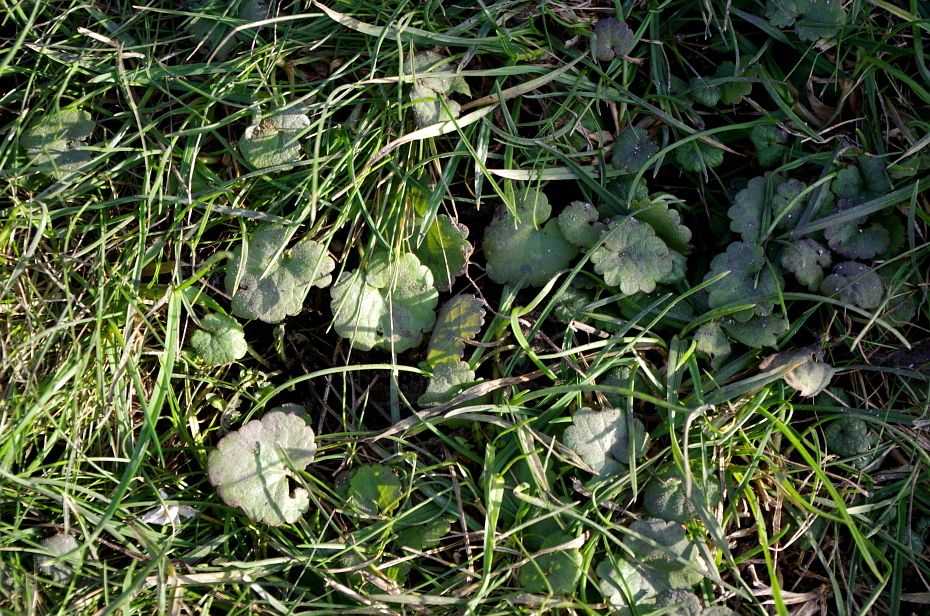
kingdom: Plantae
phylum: Tracheophyta
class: Magnoliopsida
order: Lamiales
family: Lamiaceae
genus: Glechoma
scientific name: Glechoma hederacea
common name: Ground ivy
